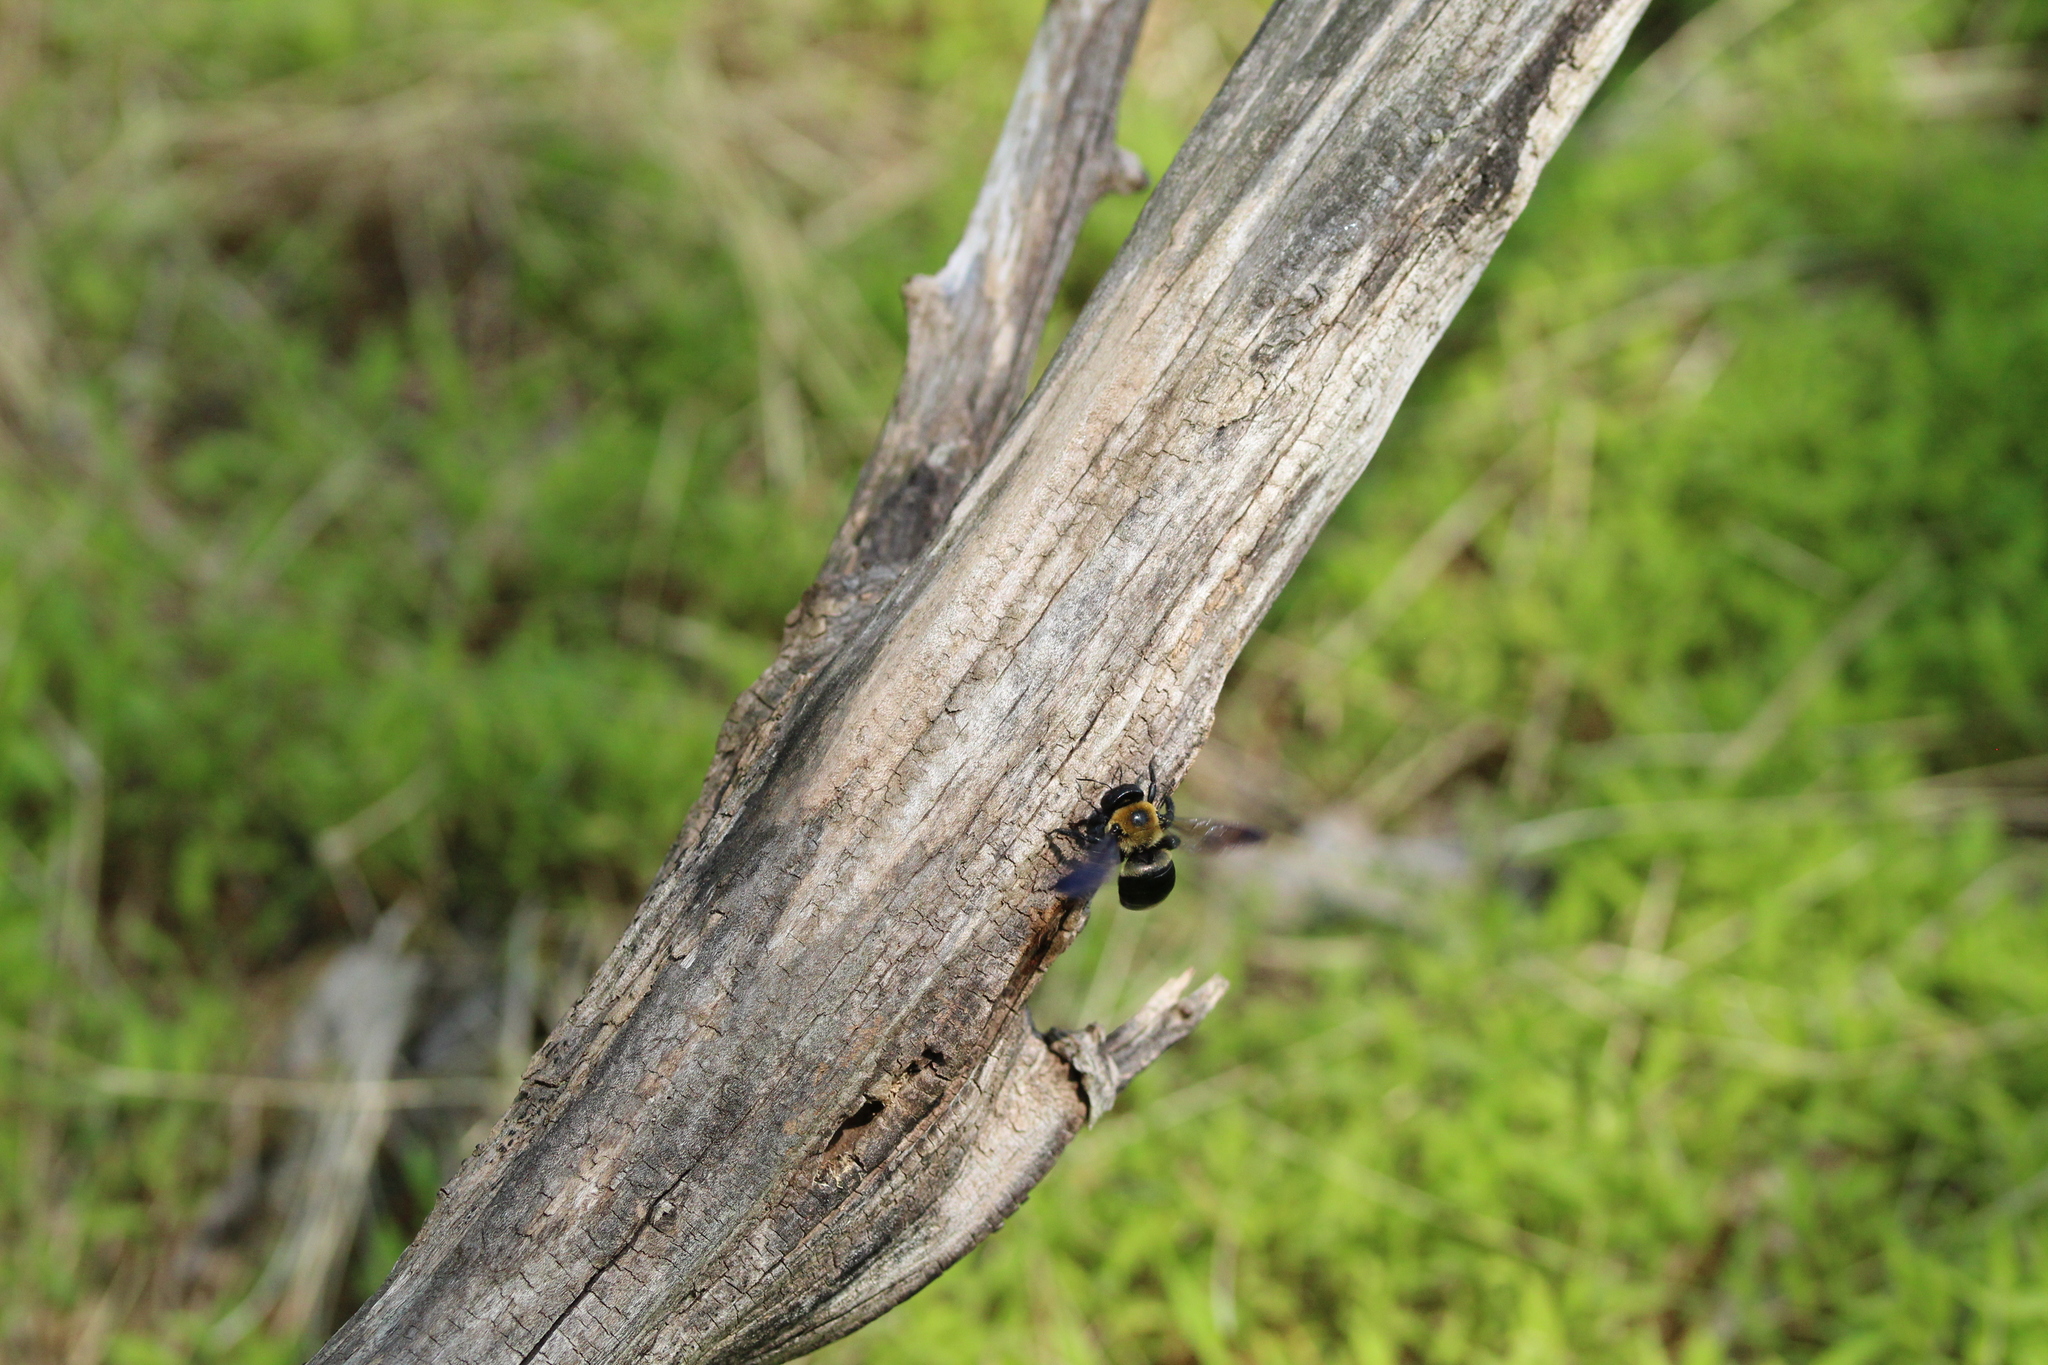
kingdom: Animalia
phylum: Arthropoda
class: Insecta
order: Hymenoptera
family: Apidae
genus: Xylocopa
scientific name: Xylocopa virginica
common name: Carpenter bee
